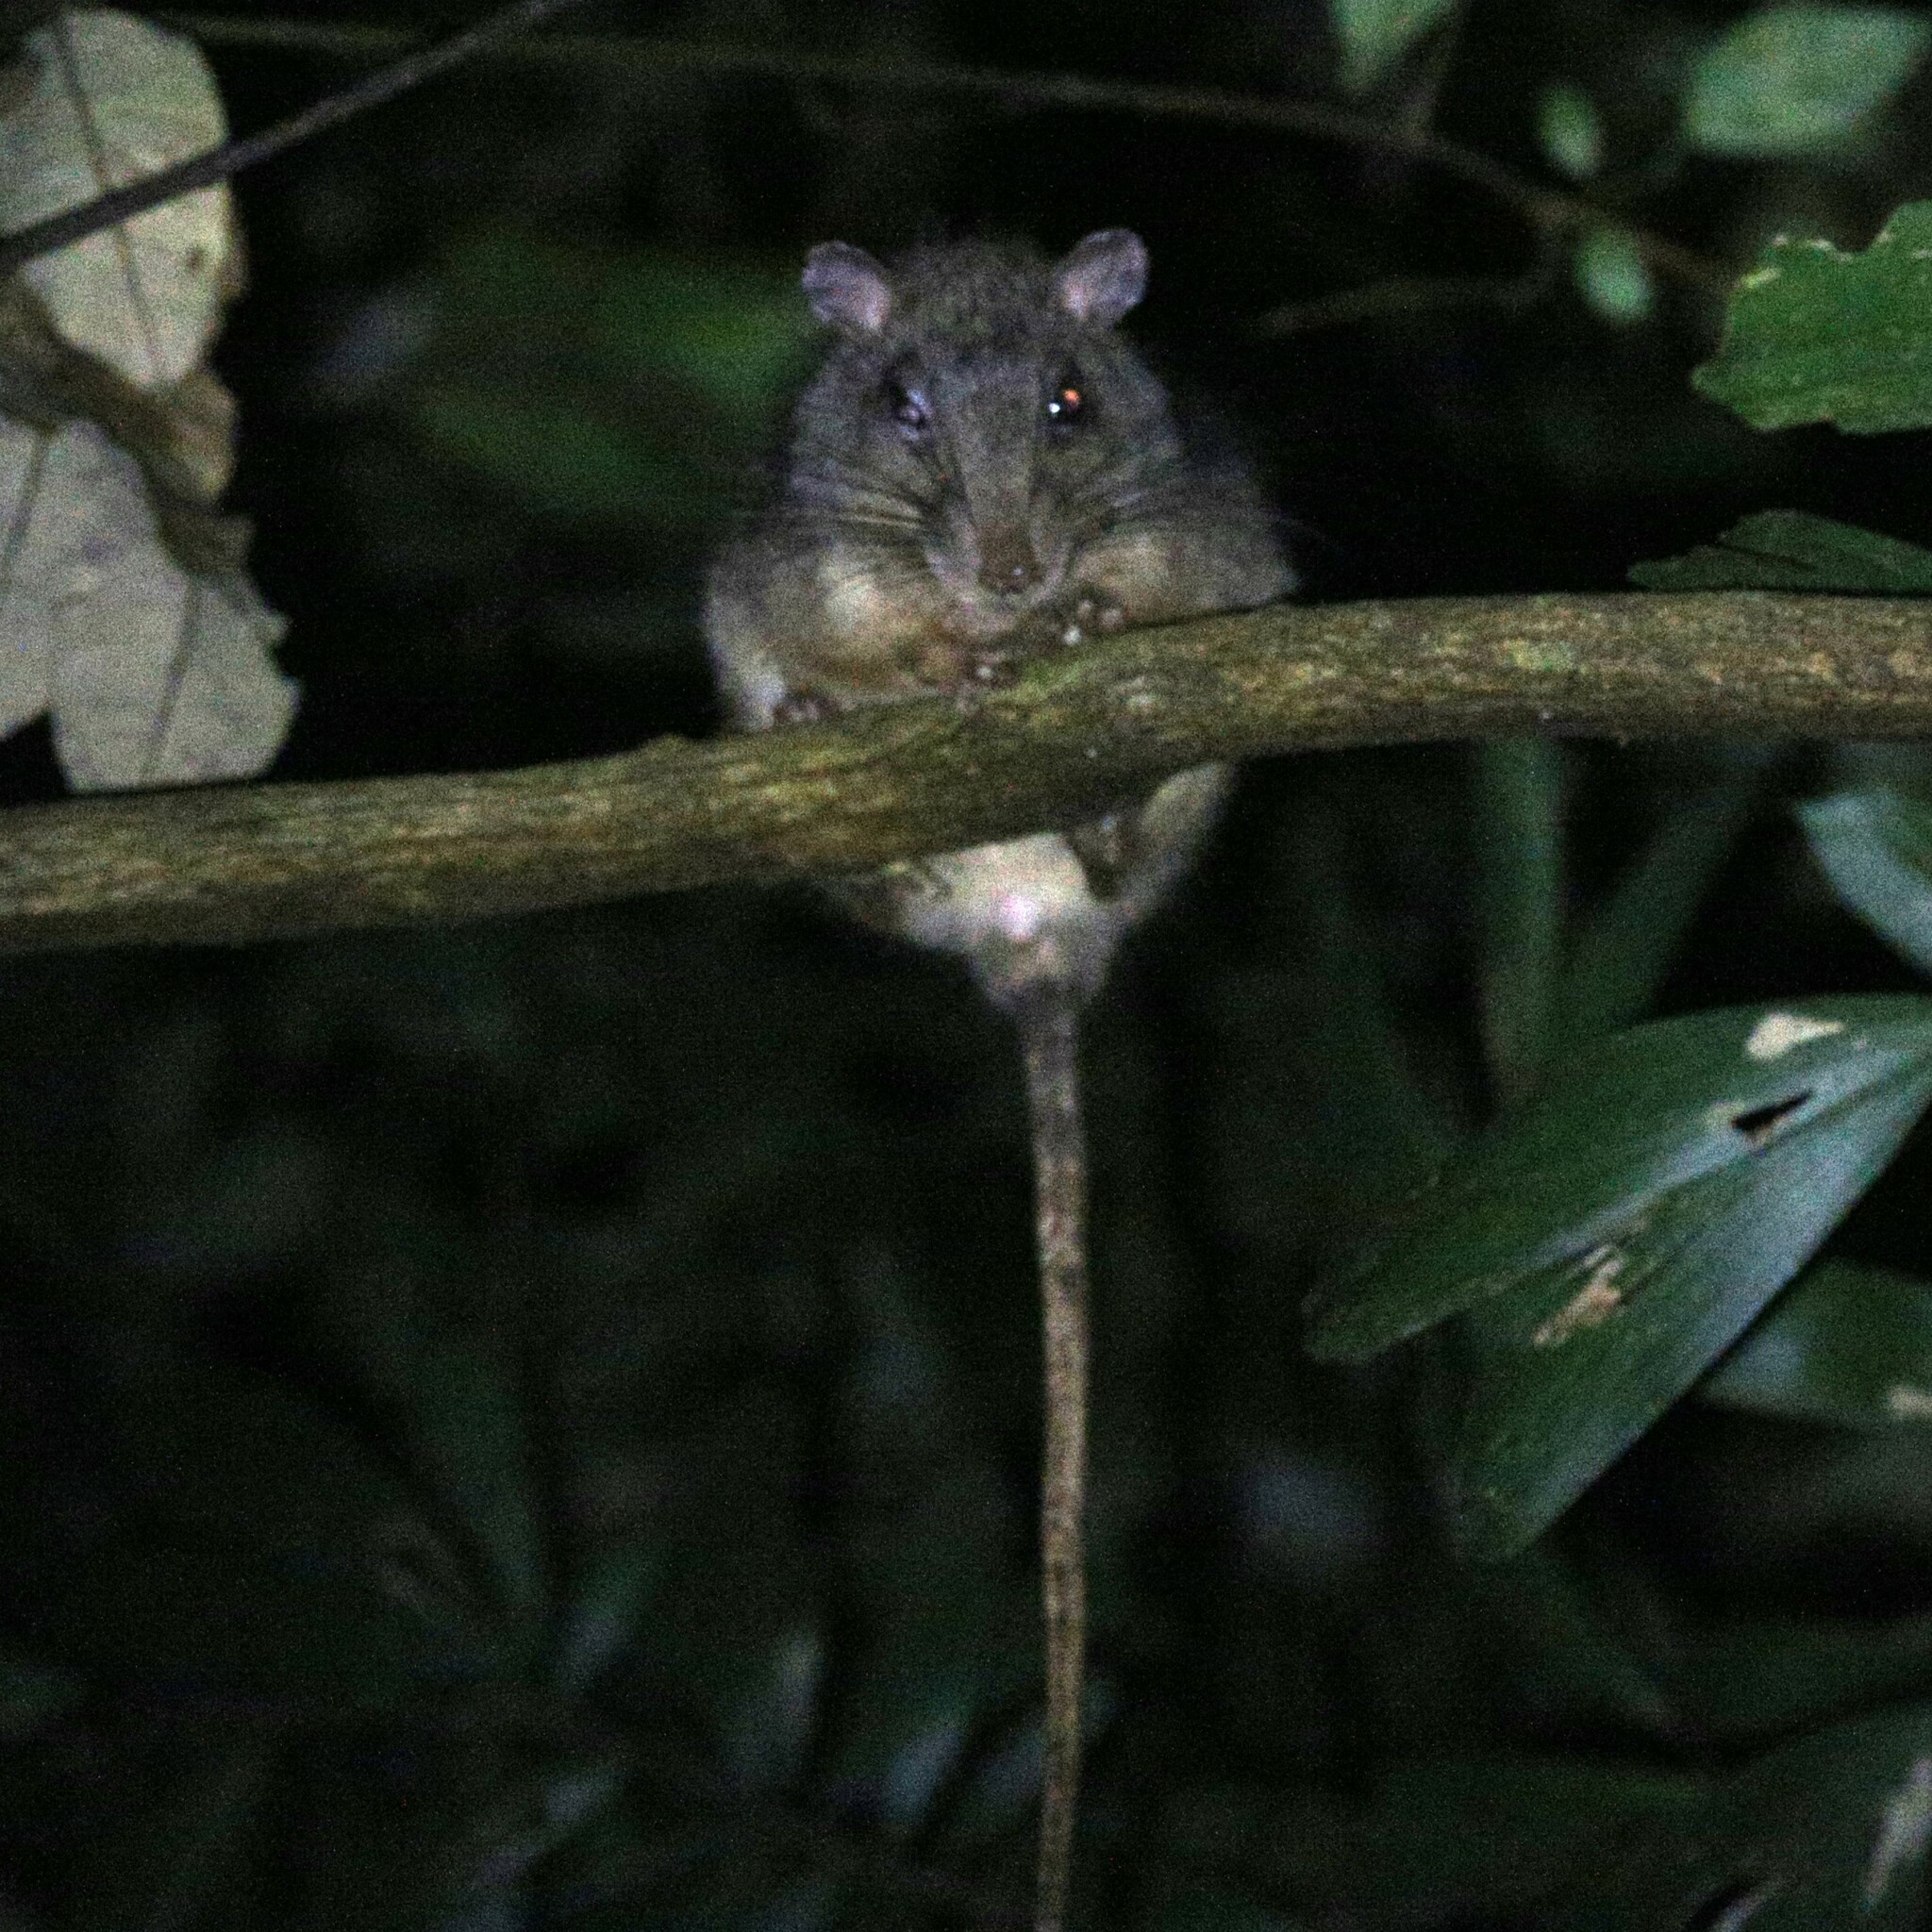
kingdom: Animalia
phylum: Chordata
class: Mammalia
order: Rodentia
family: Muridae
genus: Uromys
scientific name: Uromys caudimaculatus
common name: Giant white-tailed uromys
